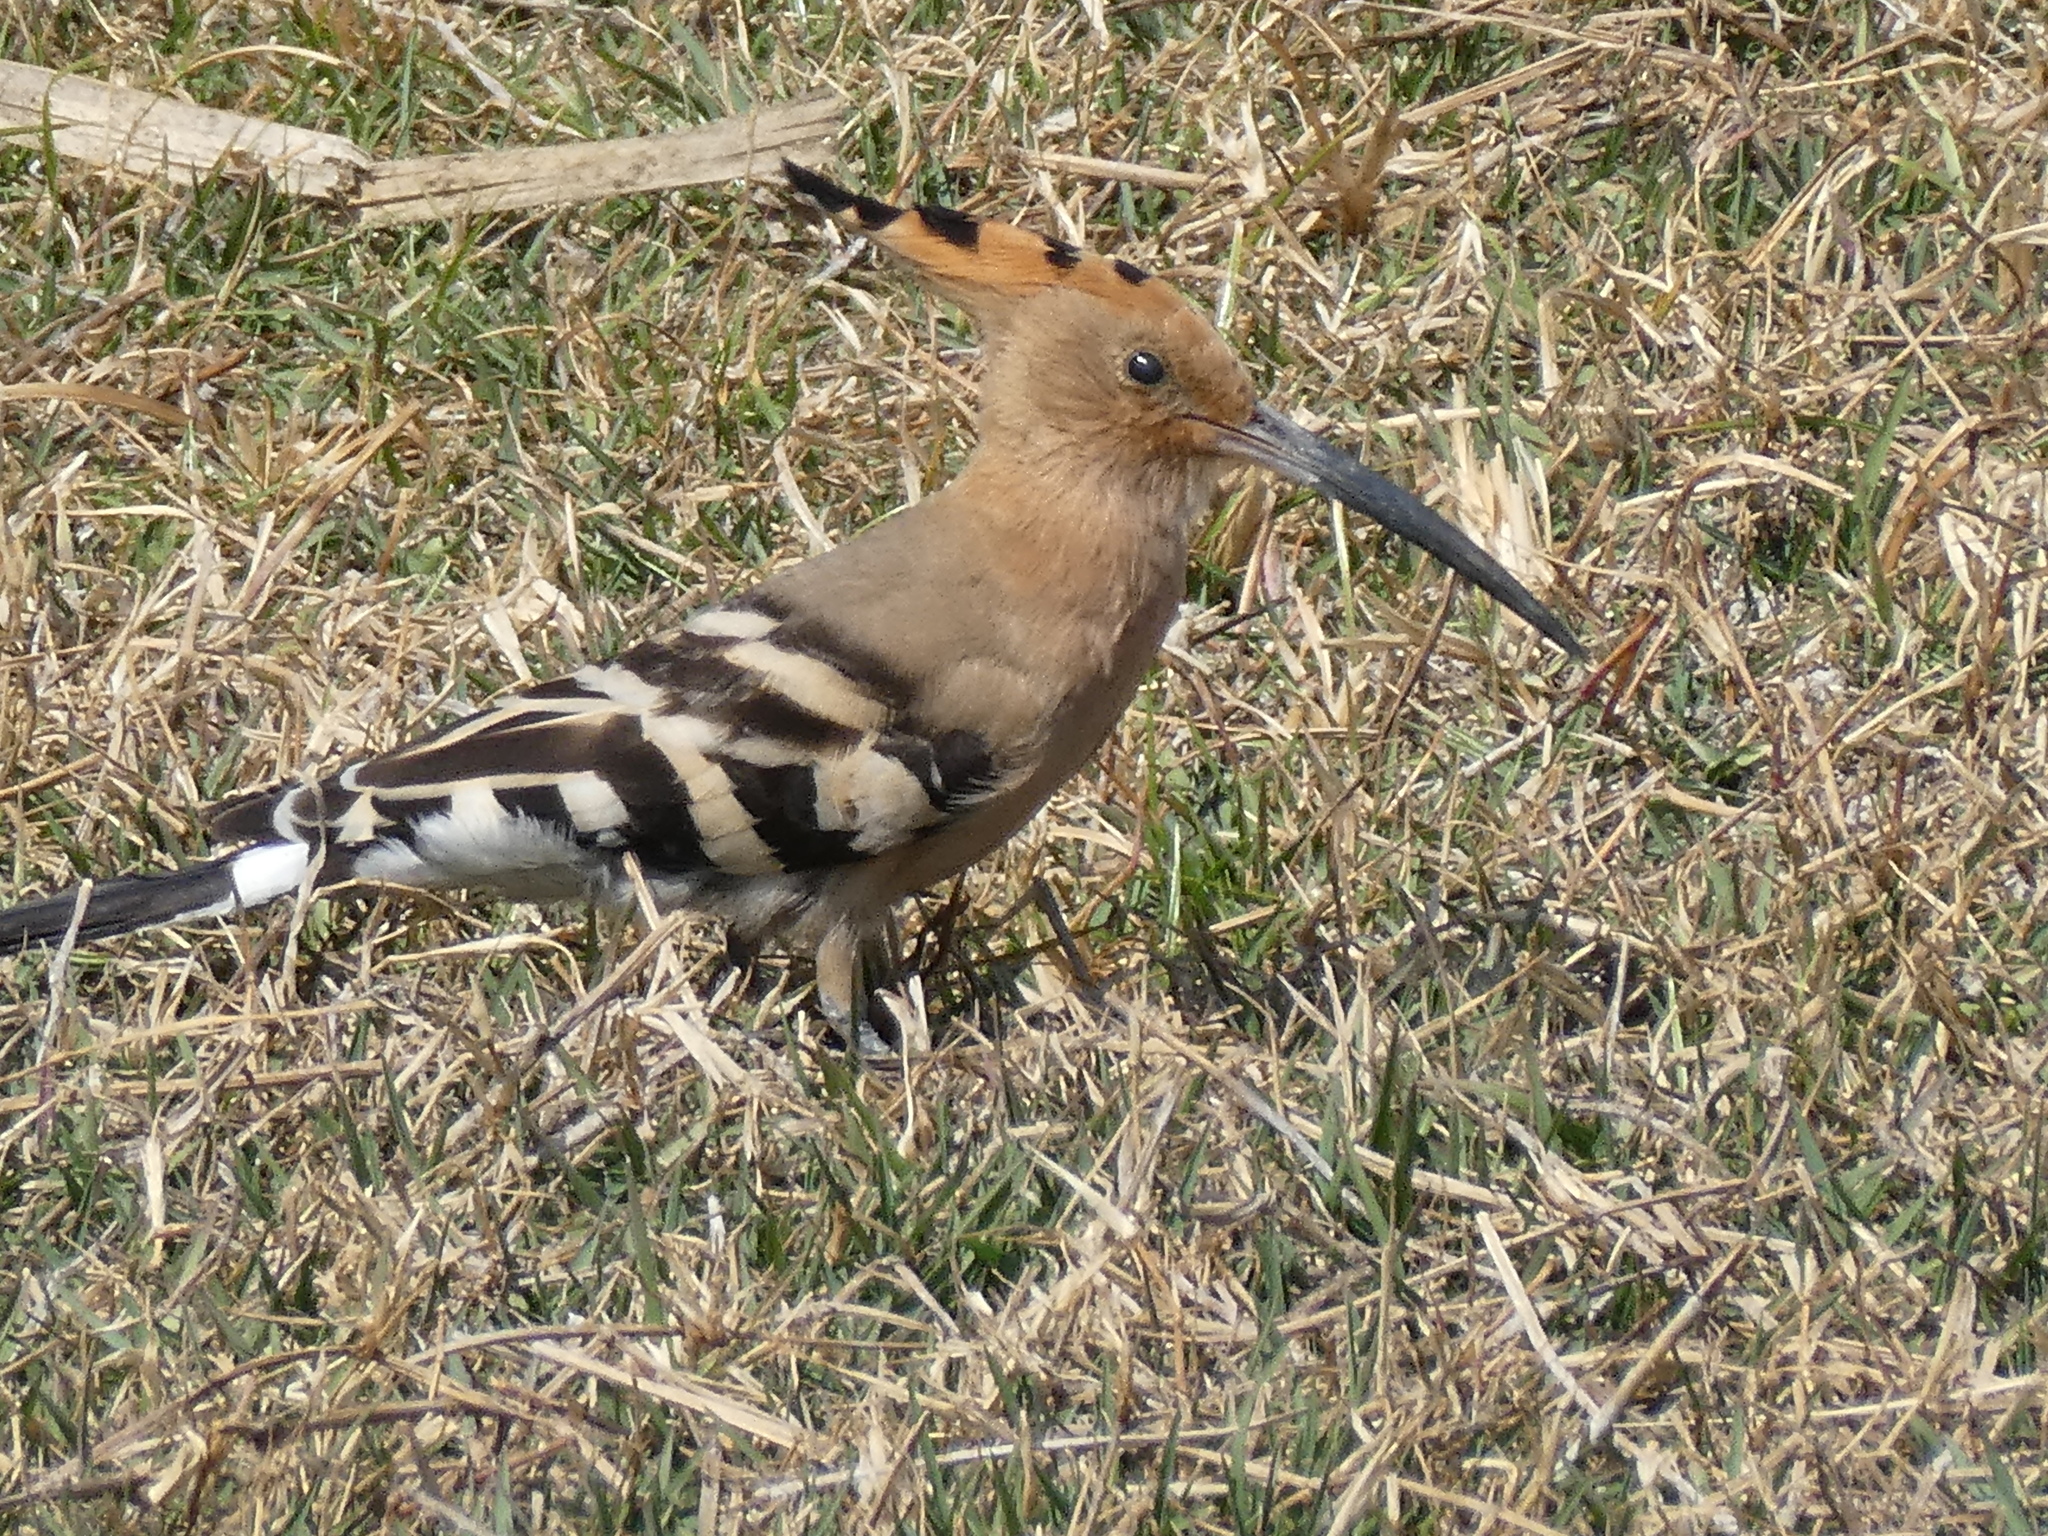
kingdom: Animalia
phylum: Chordata
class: Aves
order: Bucerotiformes
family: Upupidae
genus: Upupa
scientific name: Upupa epops
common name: Eurasian hoopoe
